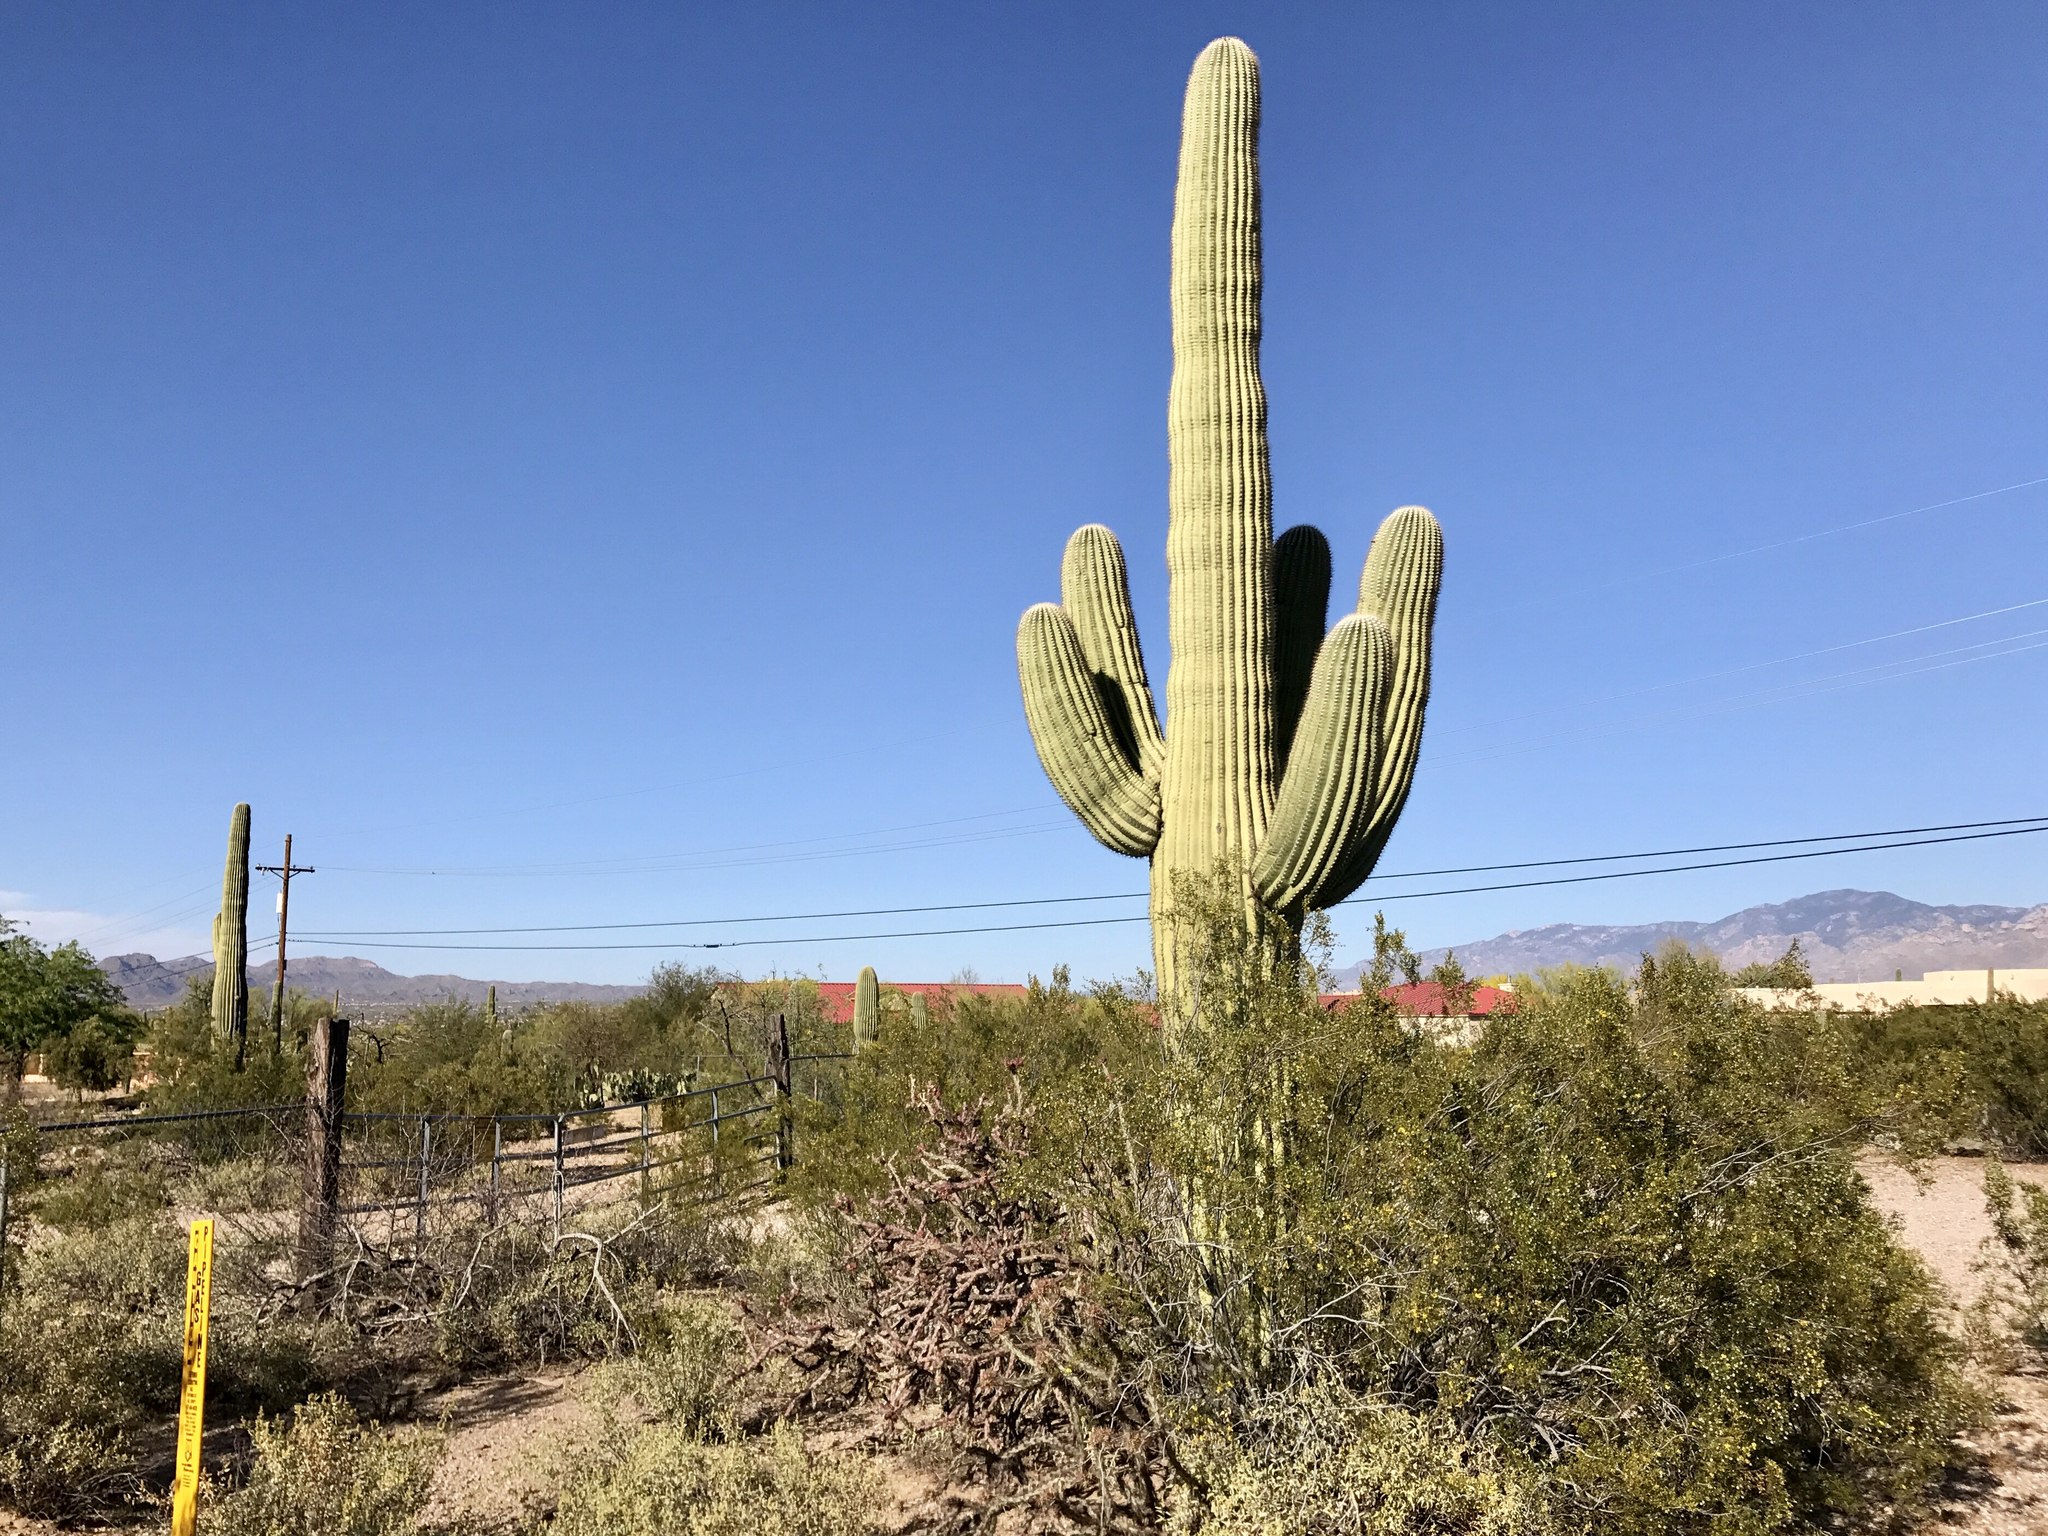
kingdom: Plantae
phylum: Tracheophyta
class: Magnoliopsida
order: Caryophyllales
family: Cactaceae
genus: Carnegiea
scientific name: Carnegiea gigantea
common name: Saguaro
